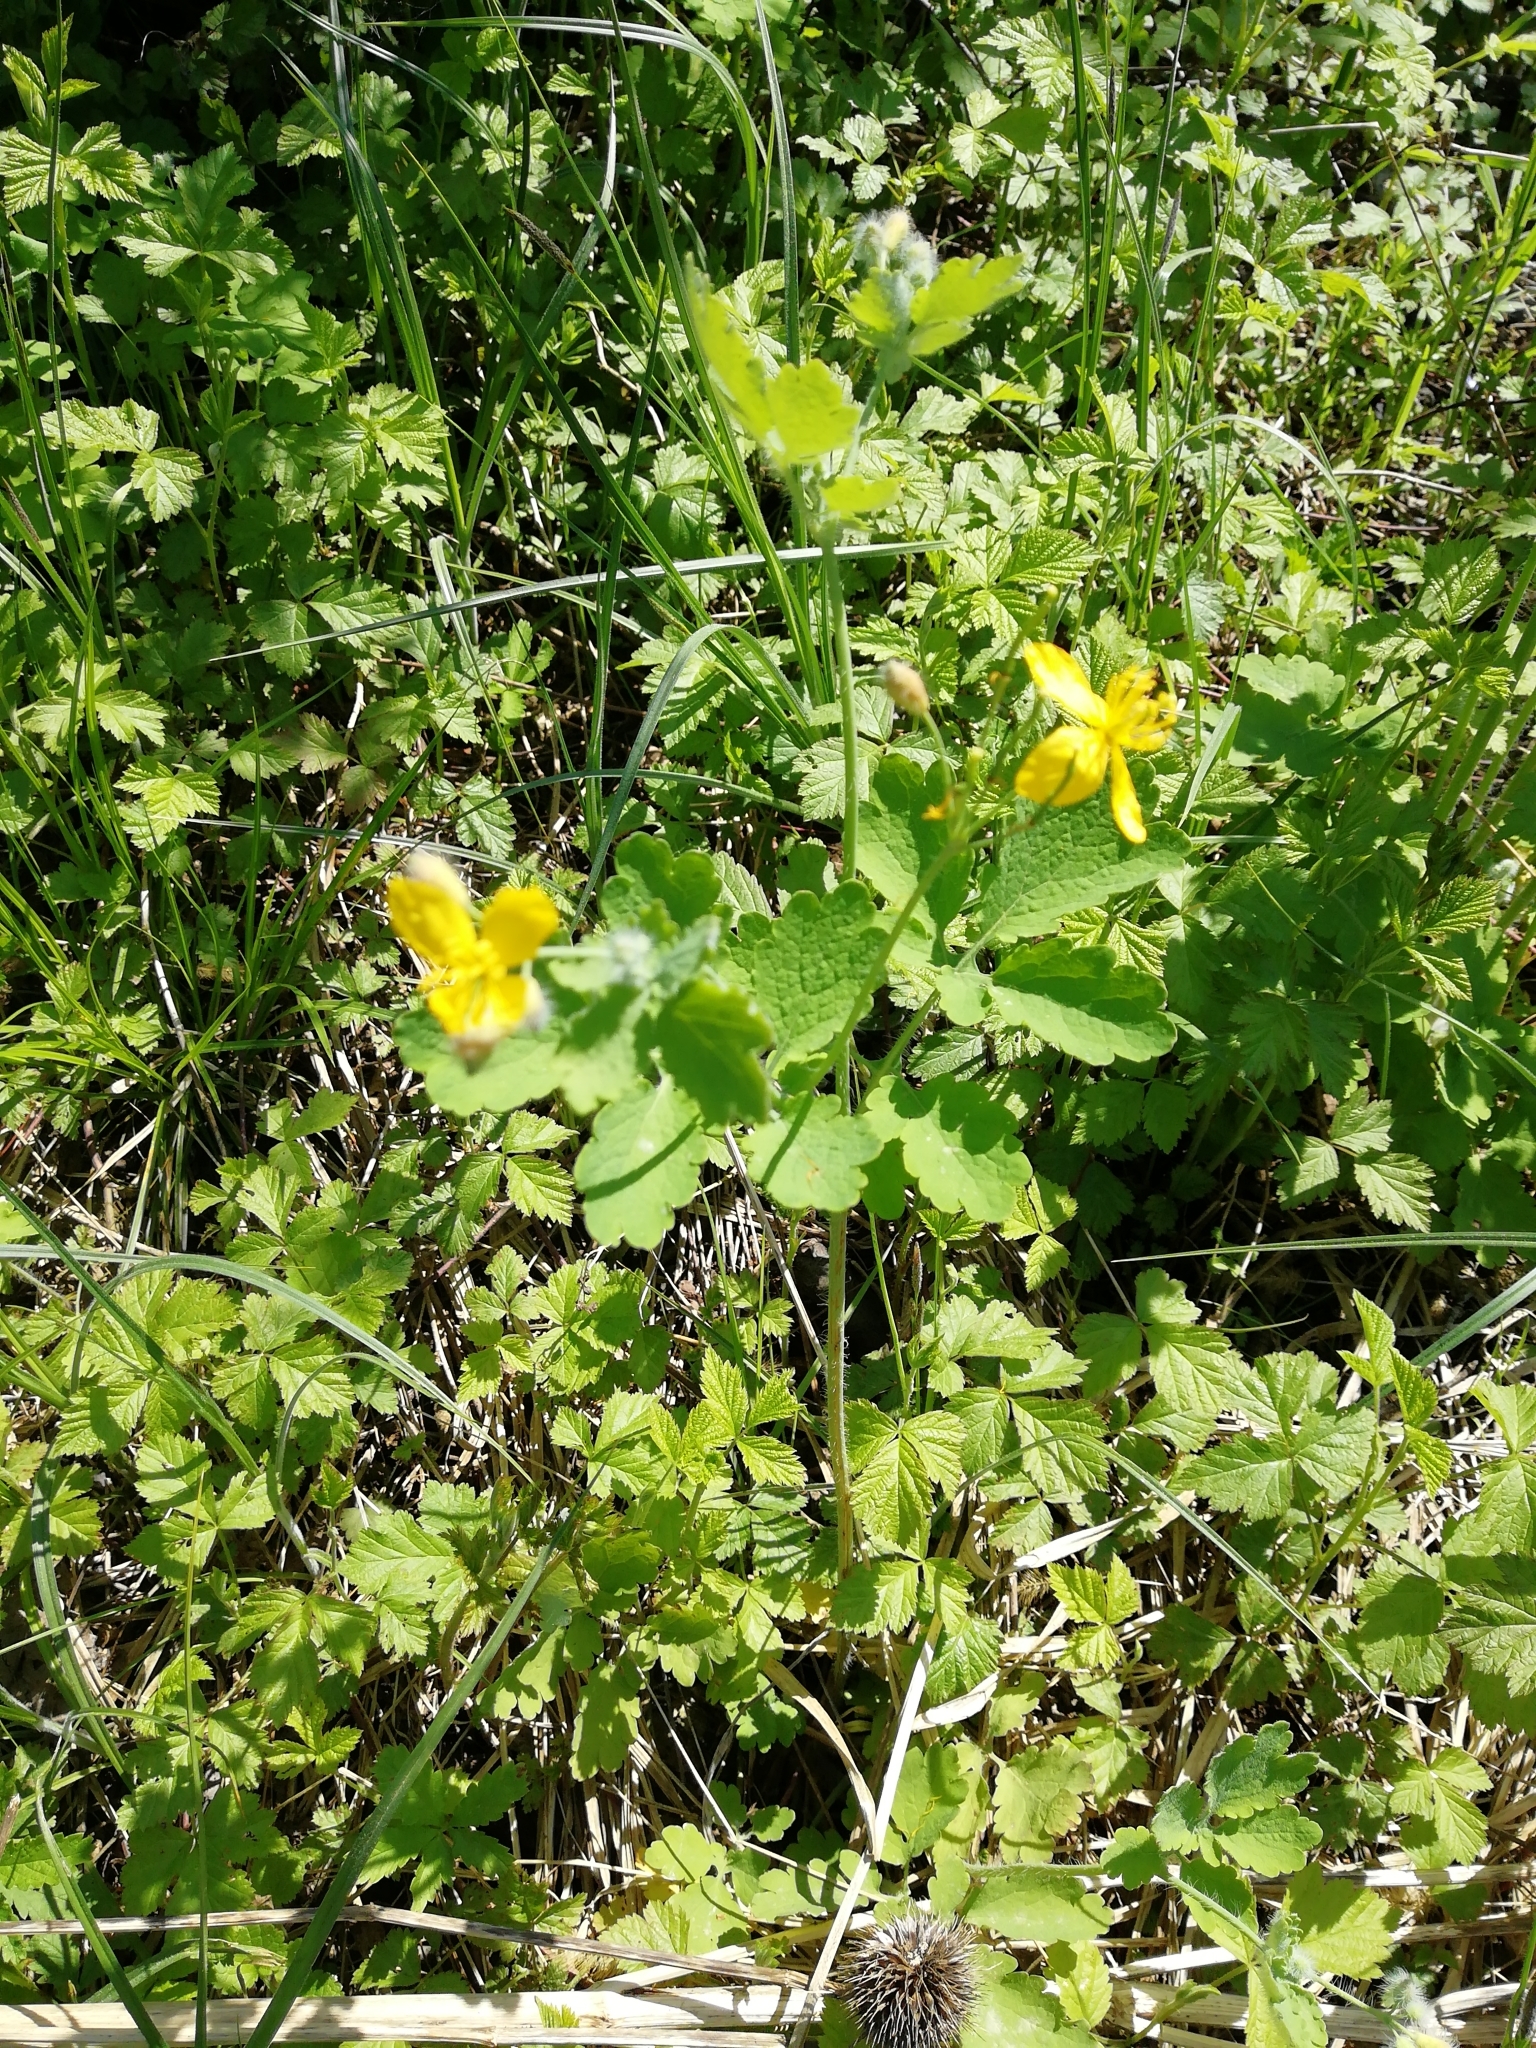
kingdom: Plantae
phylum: Tracheophyta
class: Magnoliopsida
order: Ranunculales
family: Papaveraceae
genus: Chelidonium
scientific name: Chelidonium majus
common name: Greater celandine
